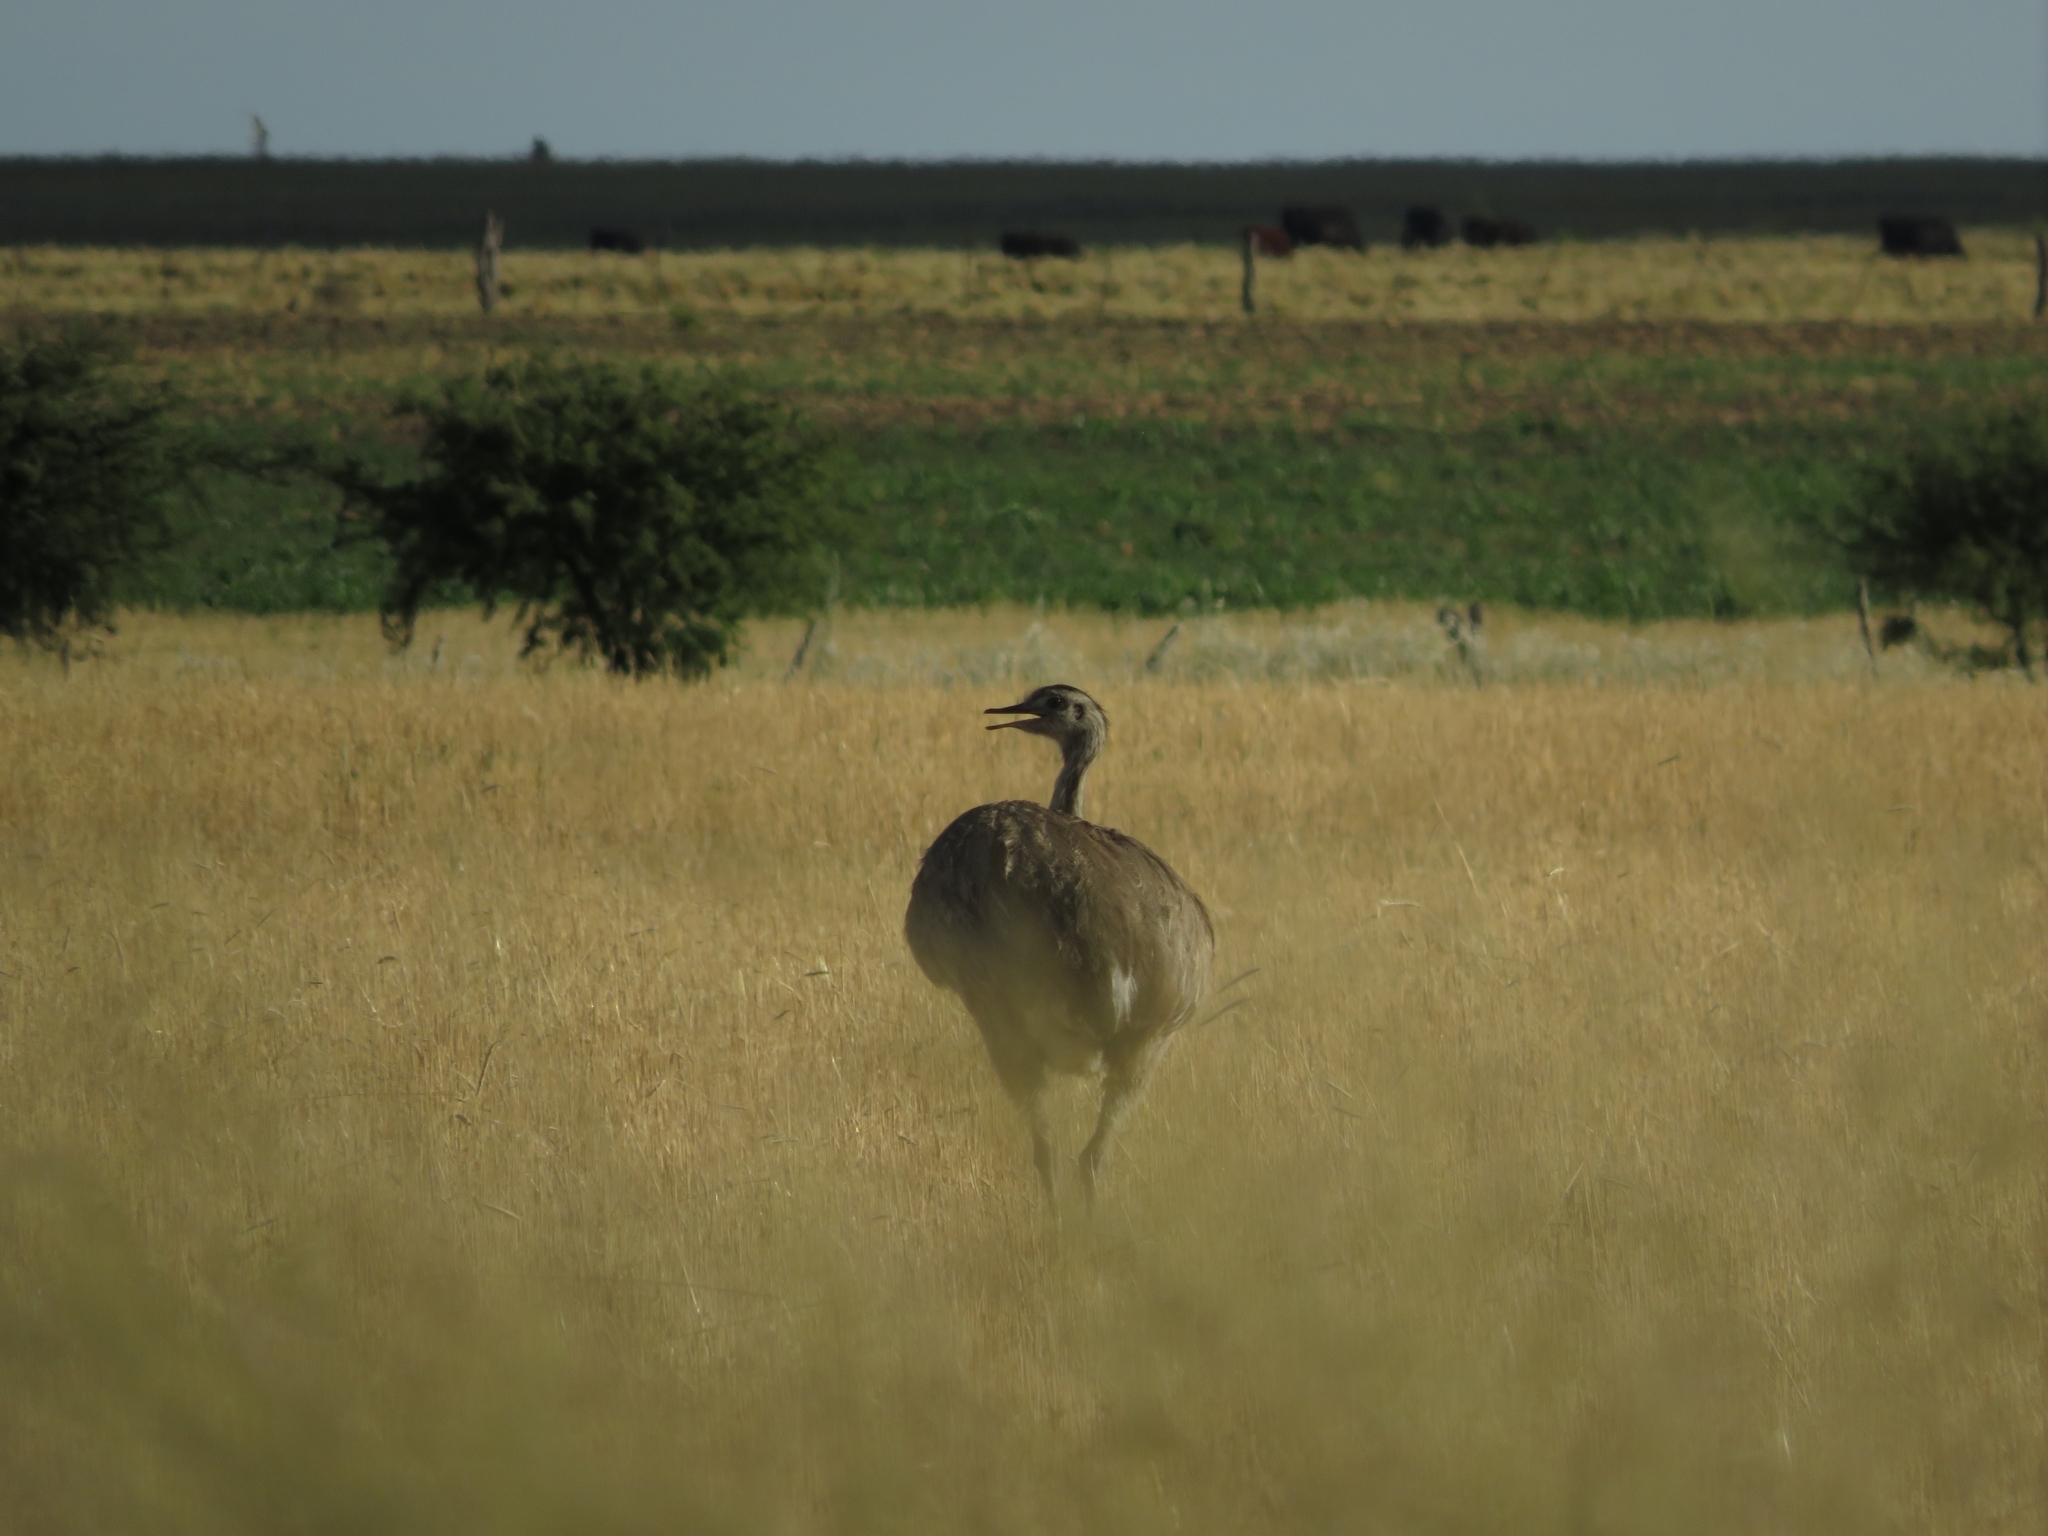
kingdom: Animalia
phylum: Chordata
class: Aves
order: Rheiformes
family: Rheidae
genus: Rhea
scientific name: Rhea americana
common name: Greater rhea
